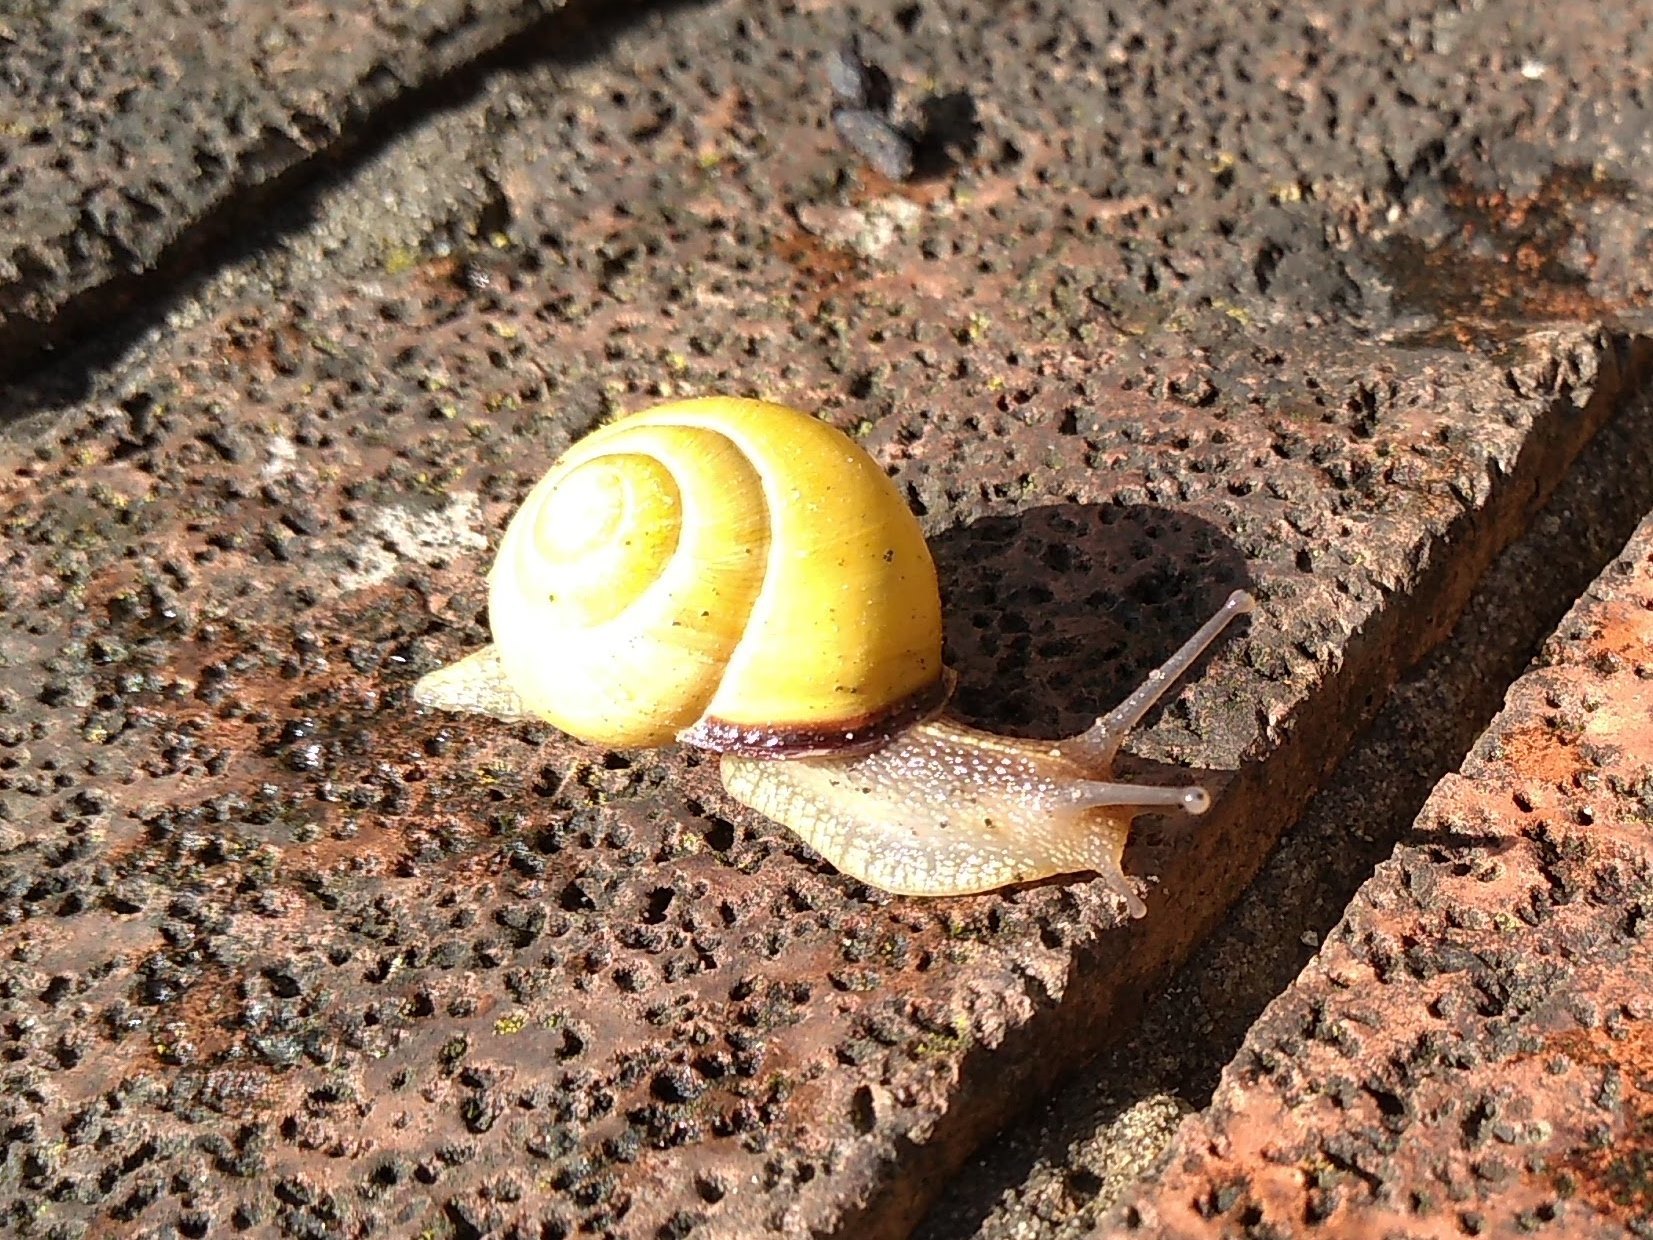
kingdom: Animalia
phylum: Mollusca
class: Gastropoda
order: Stylommatophora
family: Helicidae
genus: Cepaea
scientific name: Cepaea nemoralis
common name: Grovesnail
